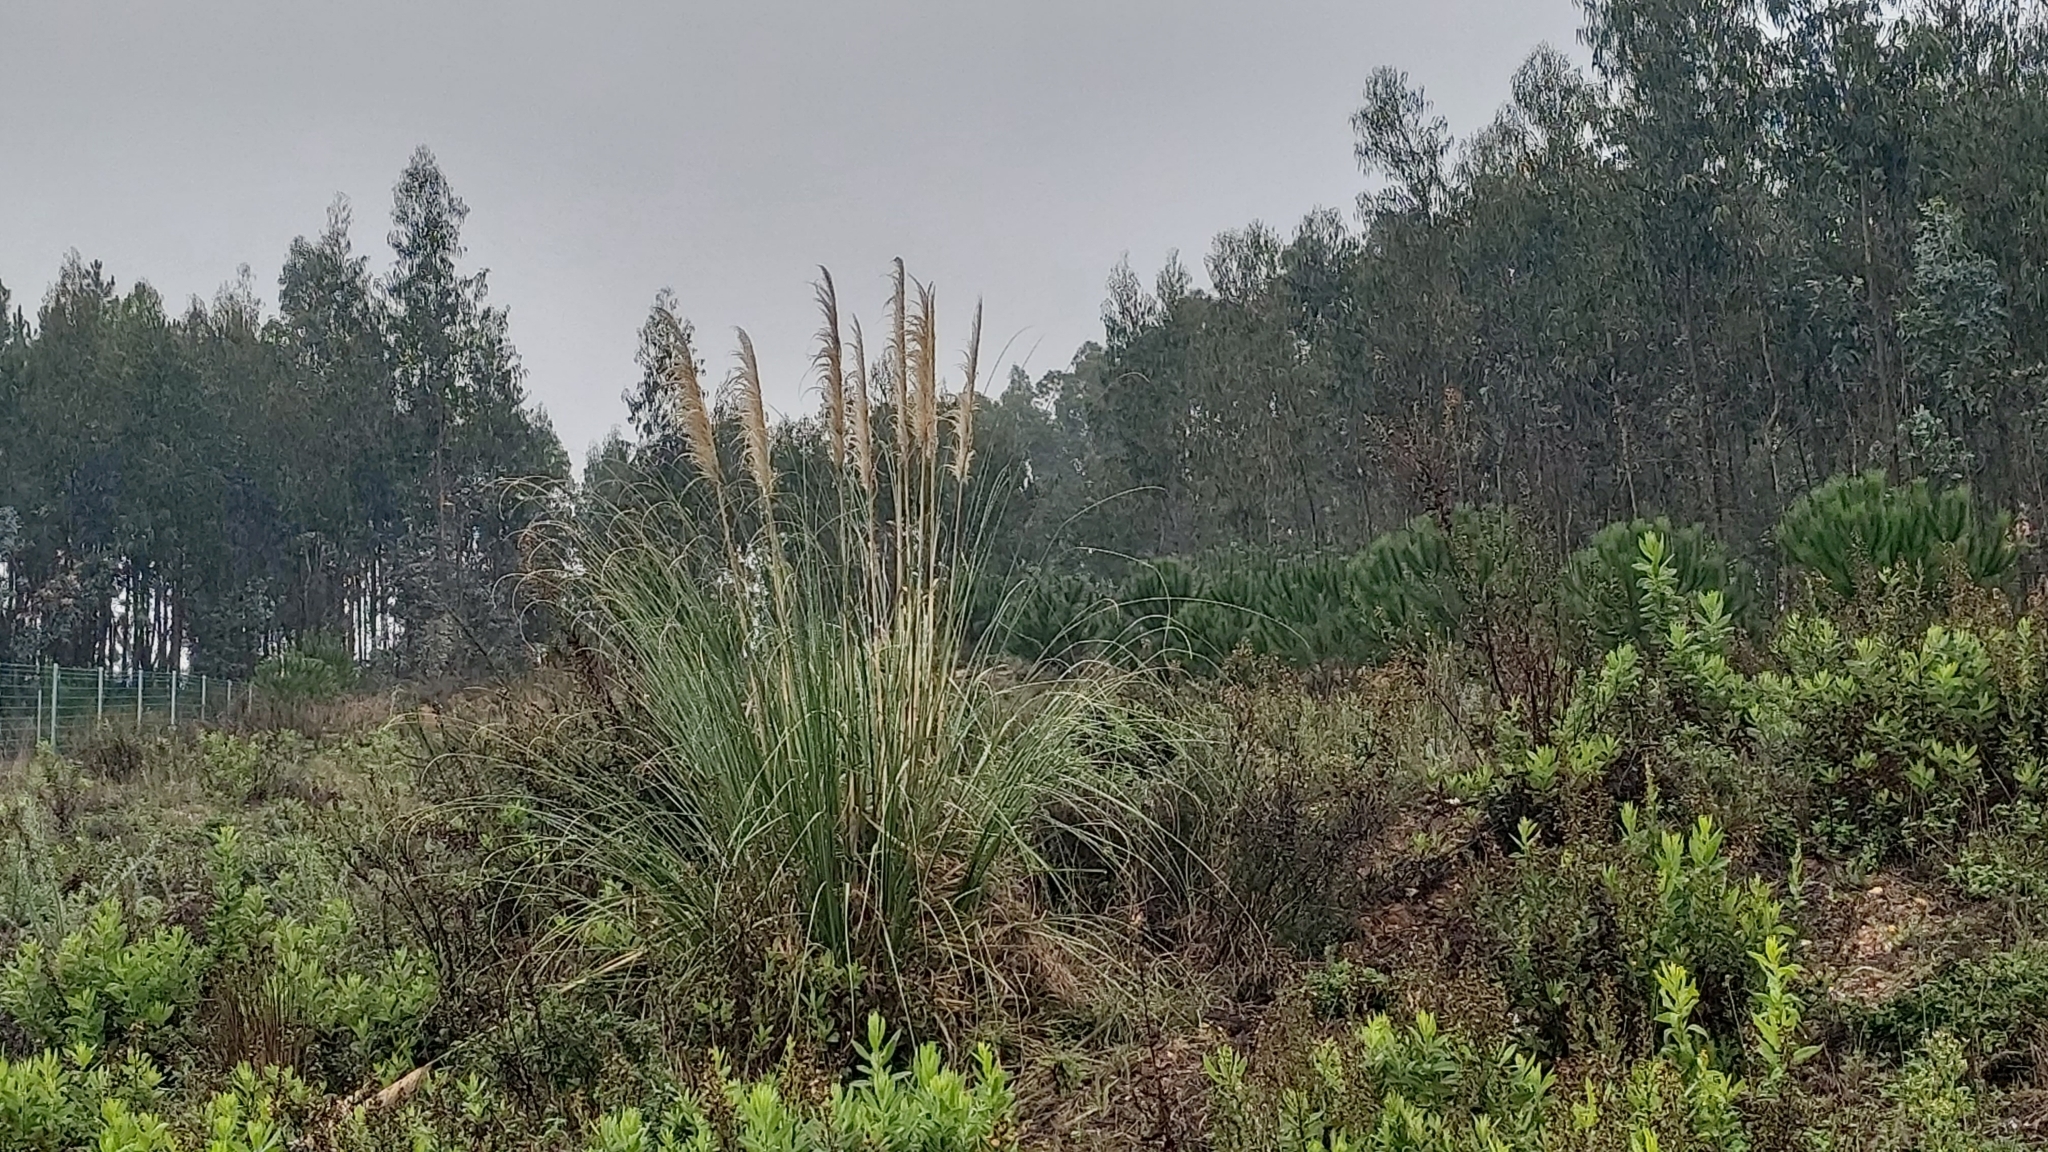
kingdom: Plantae
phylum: Tracheophyta
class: Liliopsida
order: Poales
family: Poaceae
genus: Cortaderia
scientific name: Cortaderia selloana
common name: Uruguayan pampas grass
